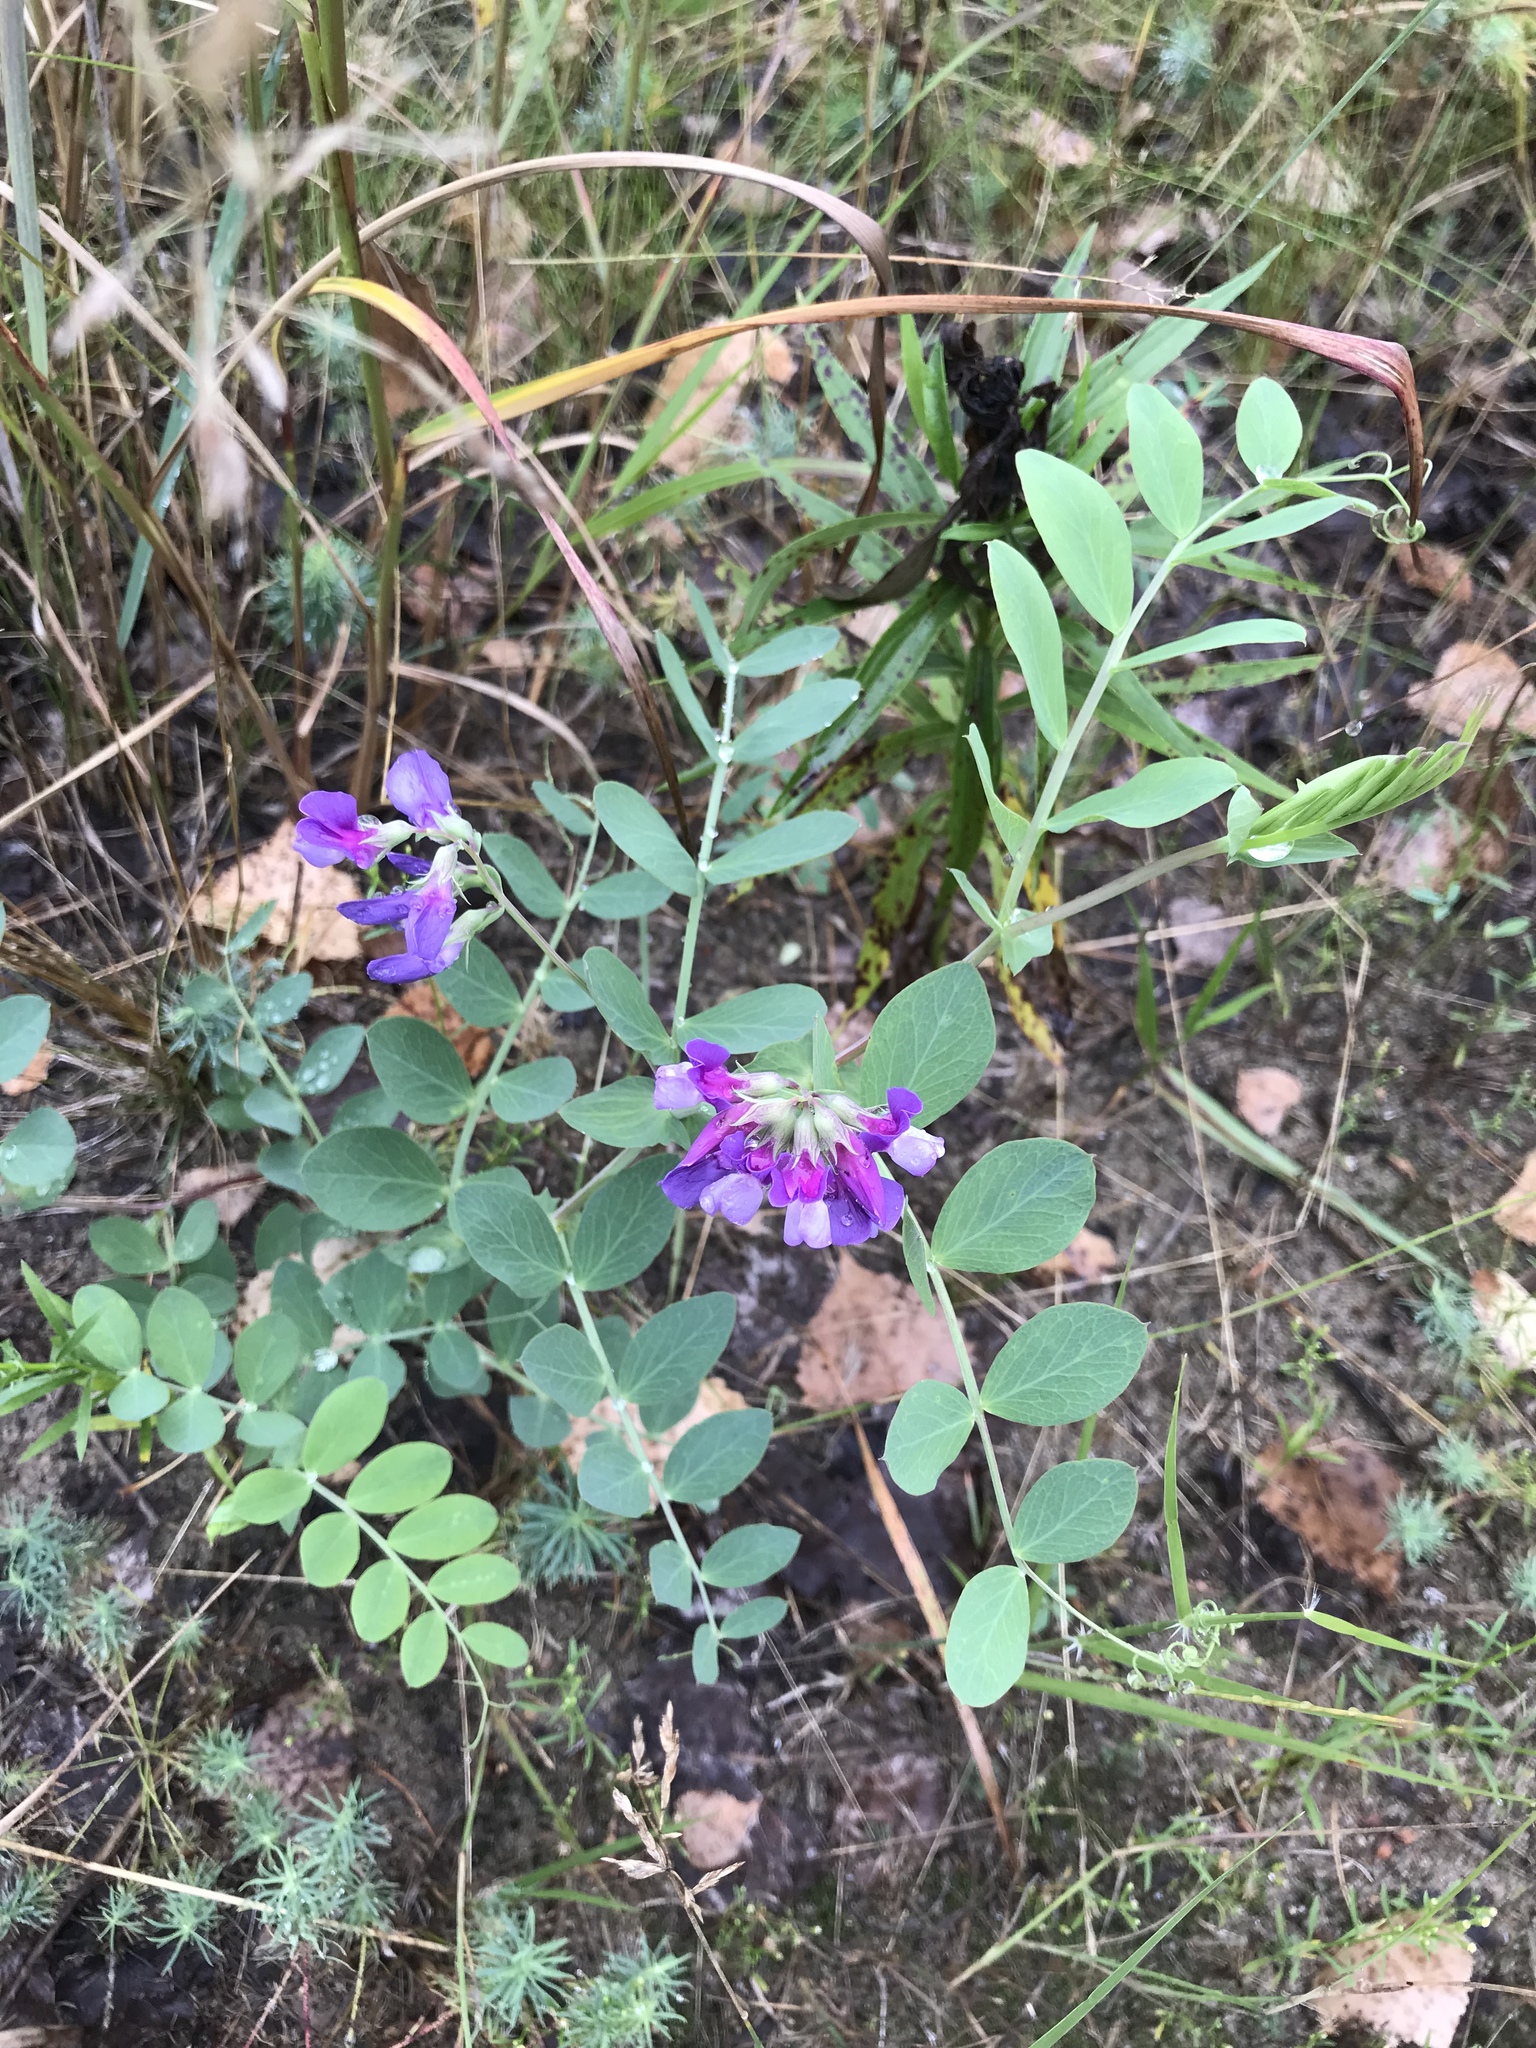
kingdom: Plantae
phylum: Tracheophyta
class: Magnoliopsida
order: Fabales
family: Fabaceae
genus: Lathyrus
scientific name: Lathyrus japonicus
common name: Sea pea
